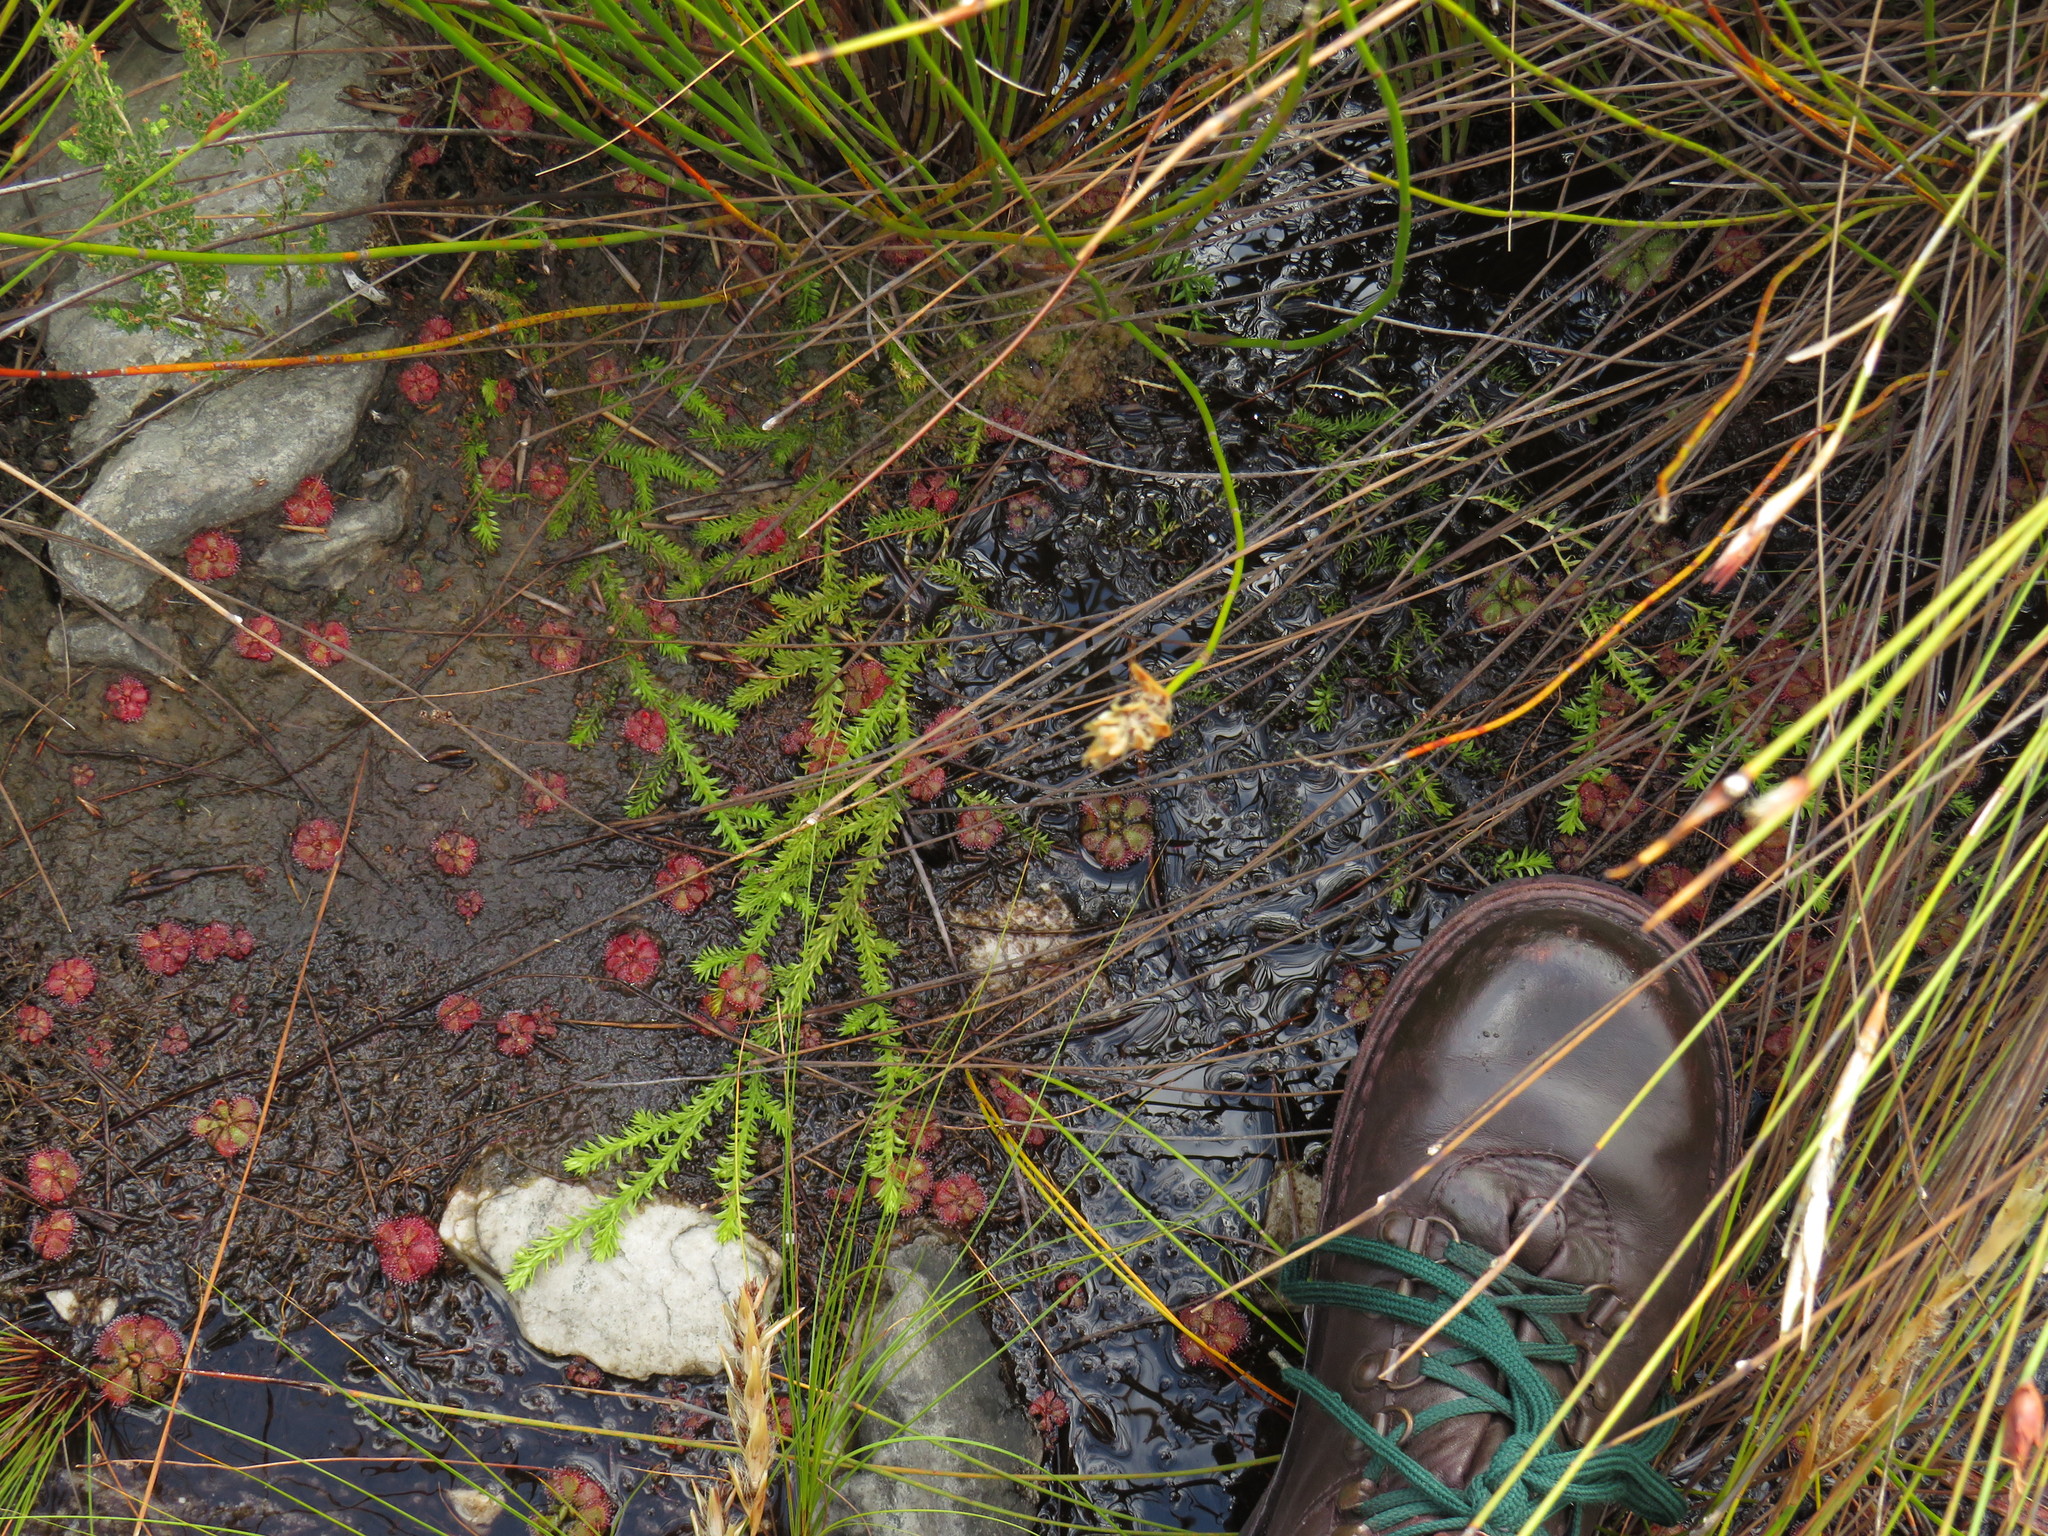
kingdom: Plantae
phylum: Tracheophyta
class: Lycopodiopsida
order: Lycopodiales
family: Lycopodiaceae
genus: Pseudolycopodiella
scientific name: Pseudolycopodiella caroliniana
